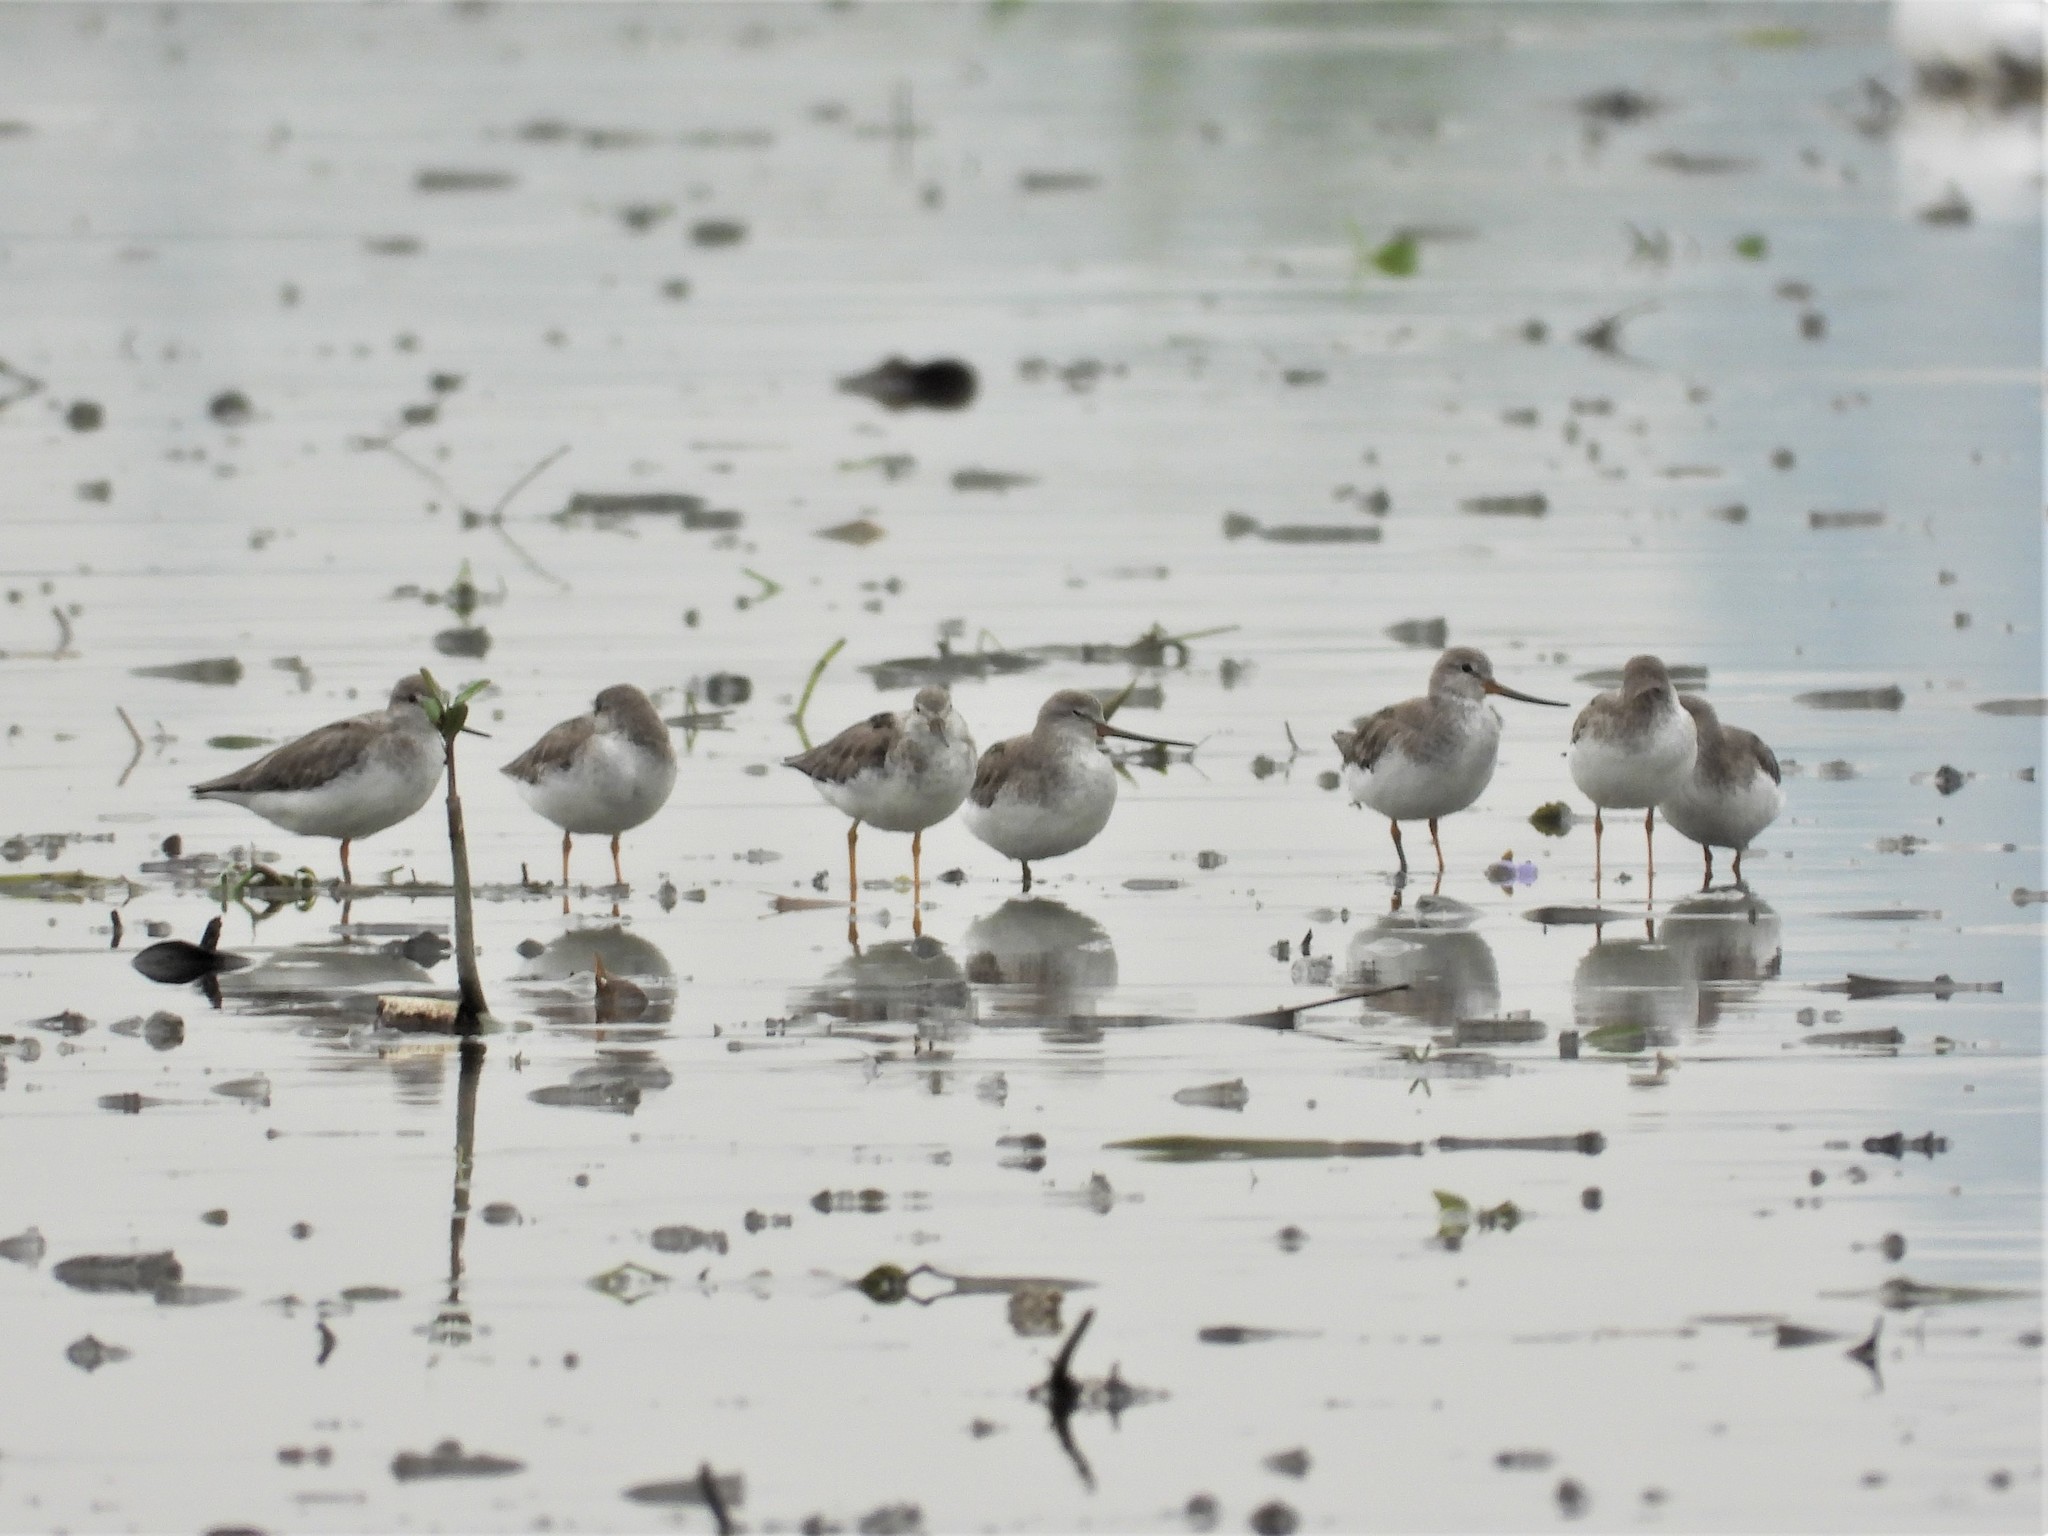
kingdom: Animalia
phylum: Chordata
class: Aves
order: Charadriiformes
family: Scolopacidae
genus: Xenus
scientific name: Xenus cinereus
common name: Terek sandpiper
